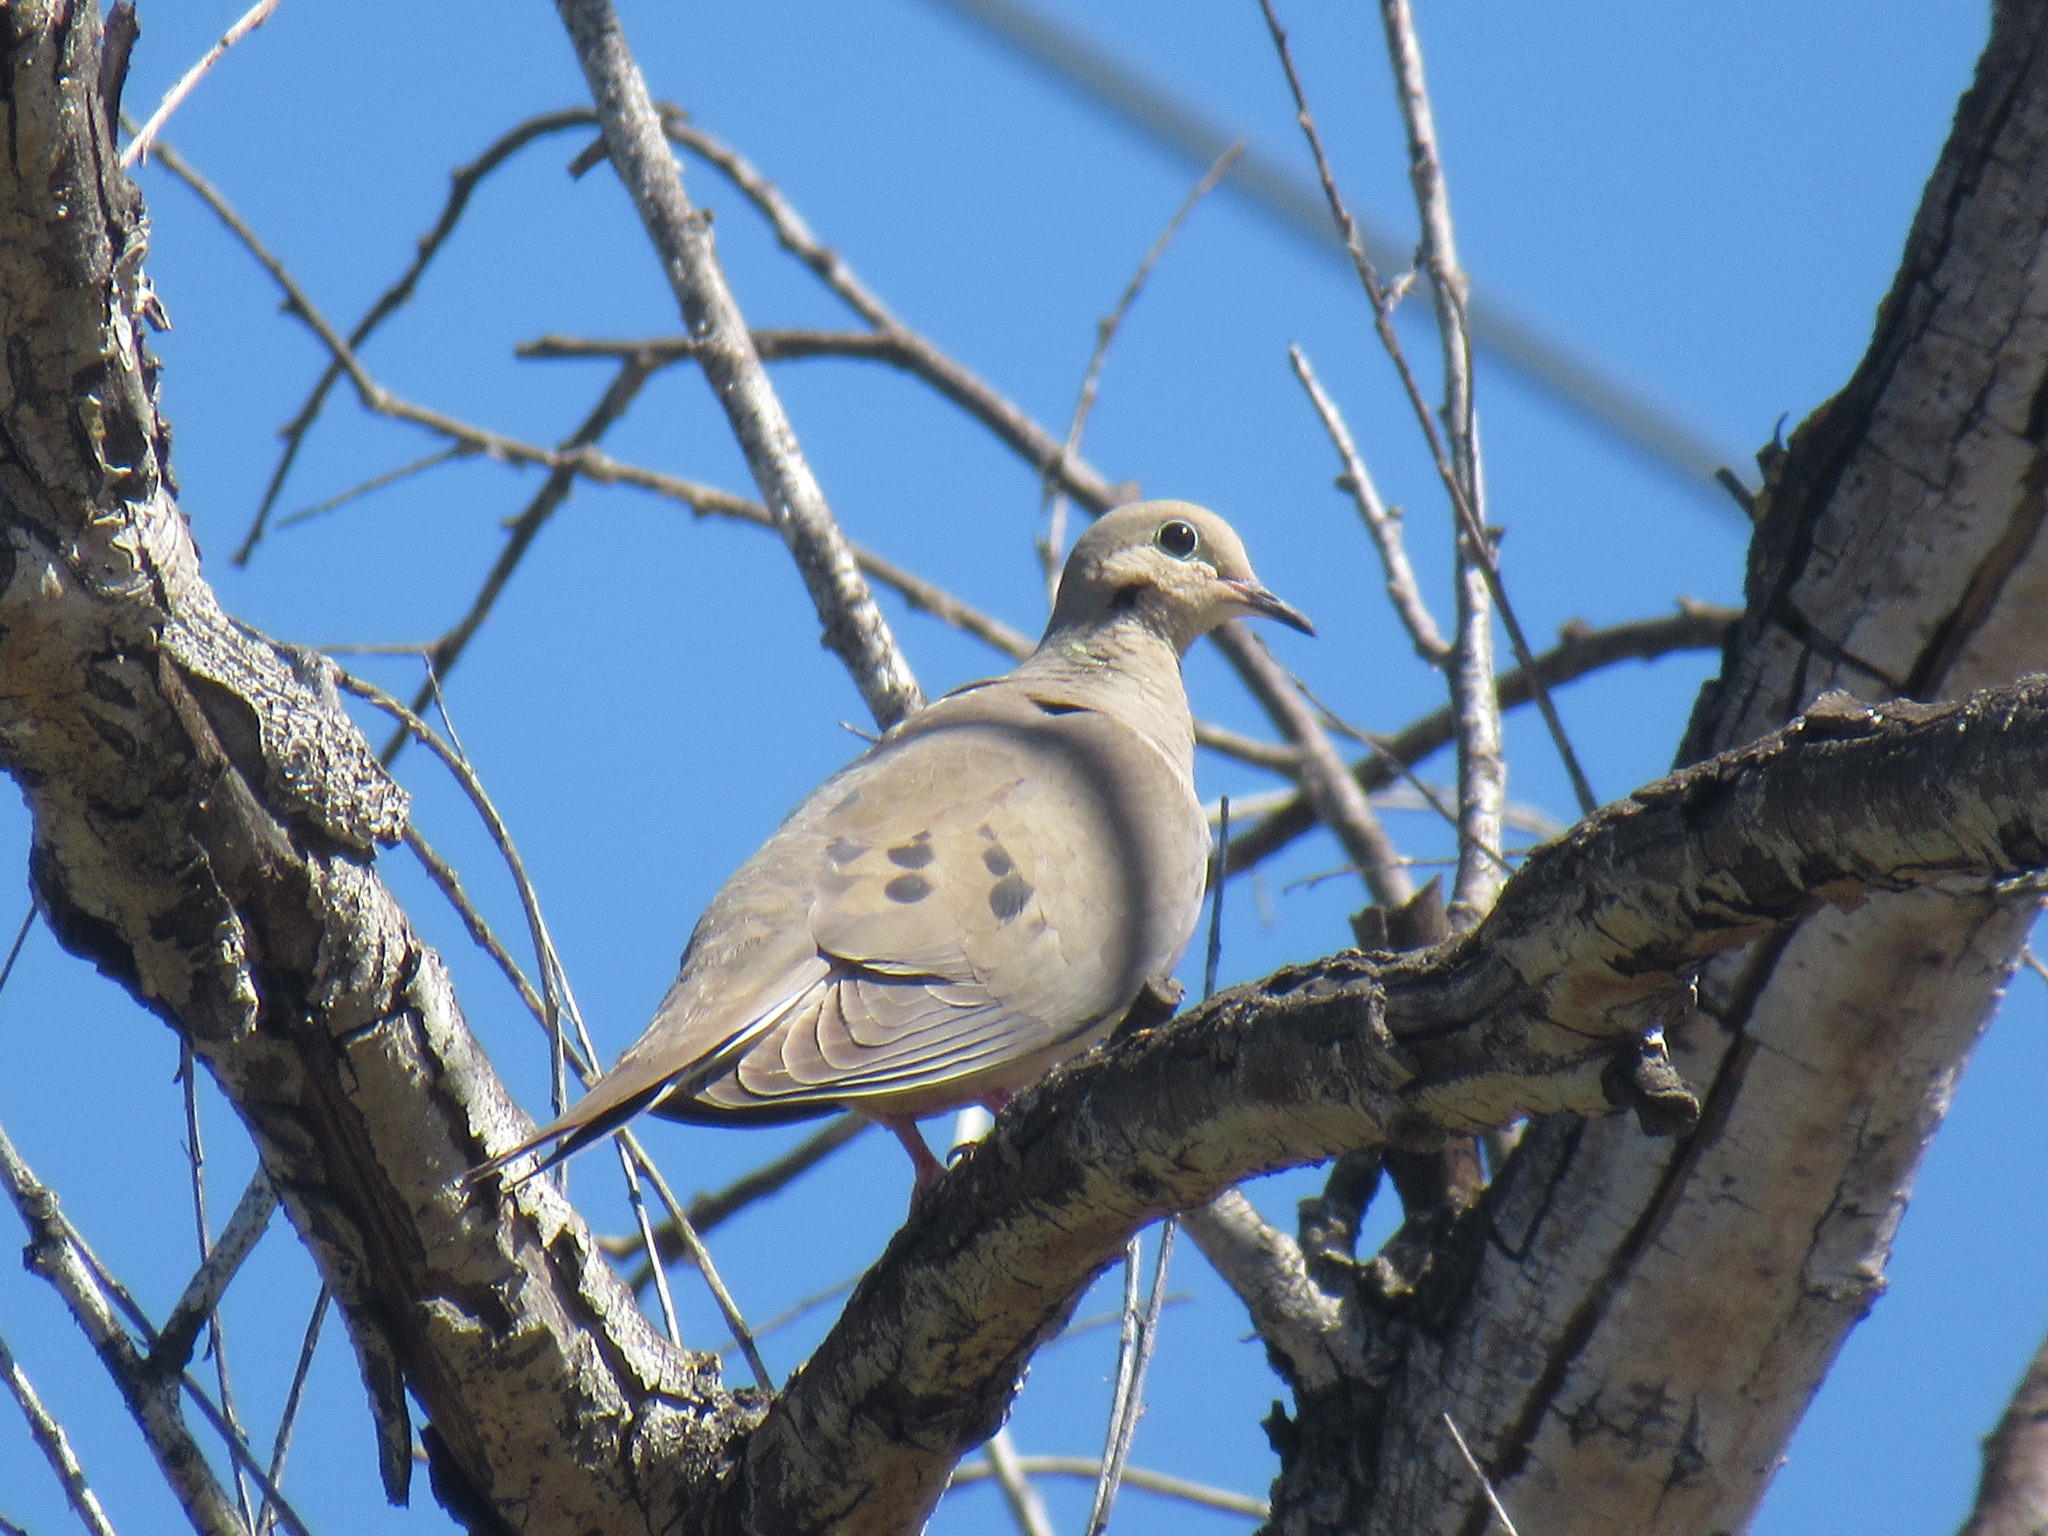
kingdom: Animalia
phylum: Chordata
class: Aves
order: Columbiformes
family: Columbidae
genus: Zenaida
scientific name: Zenaida macroura
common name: Mourning dove
